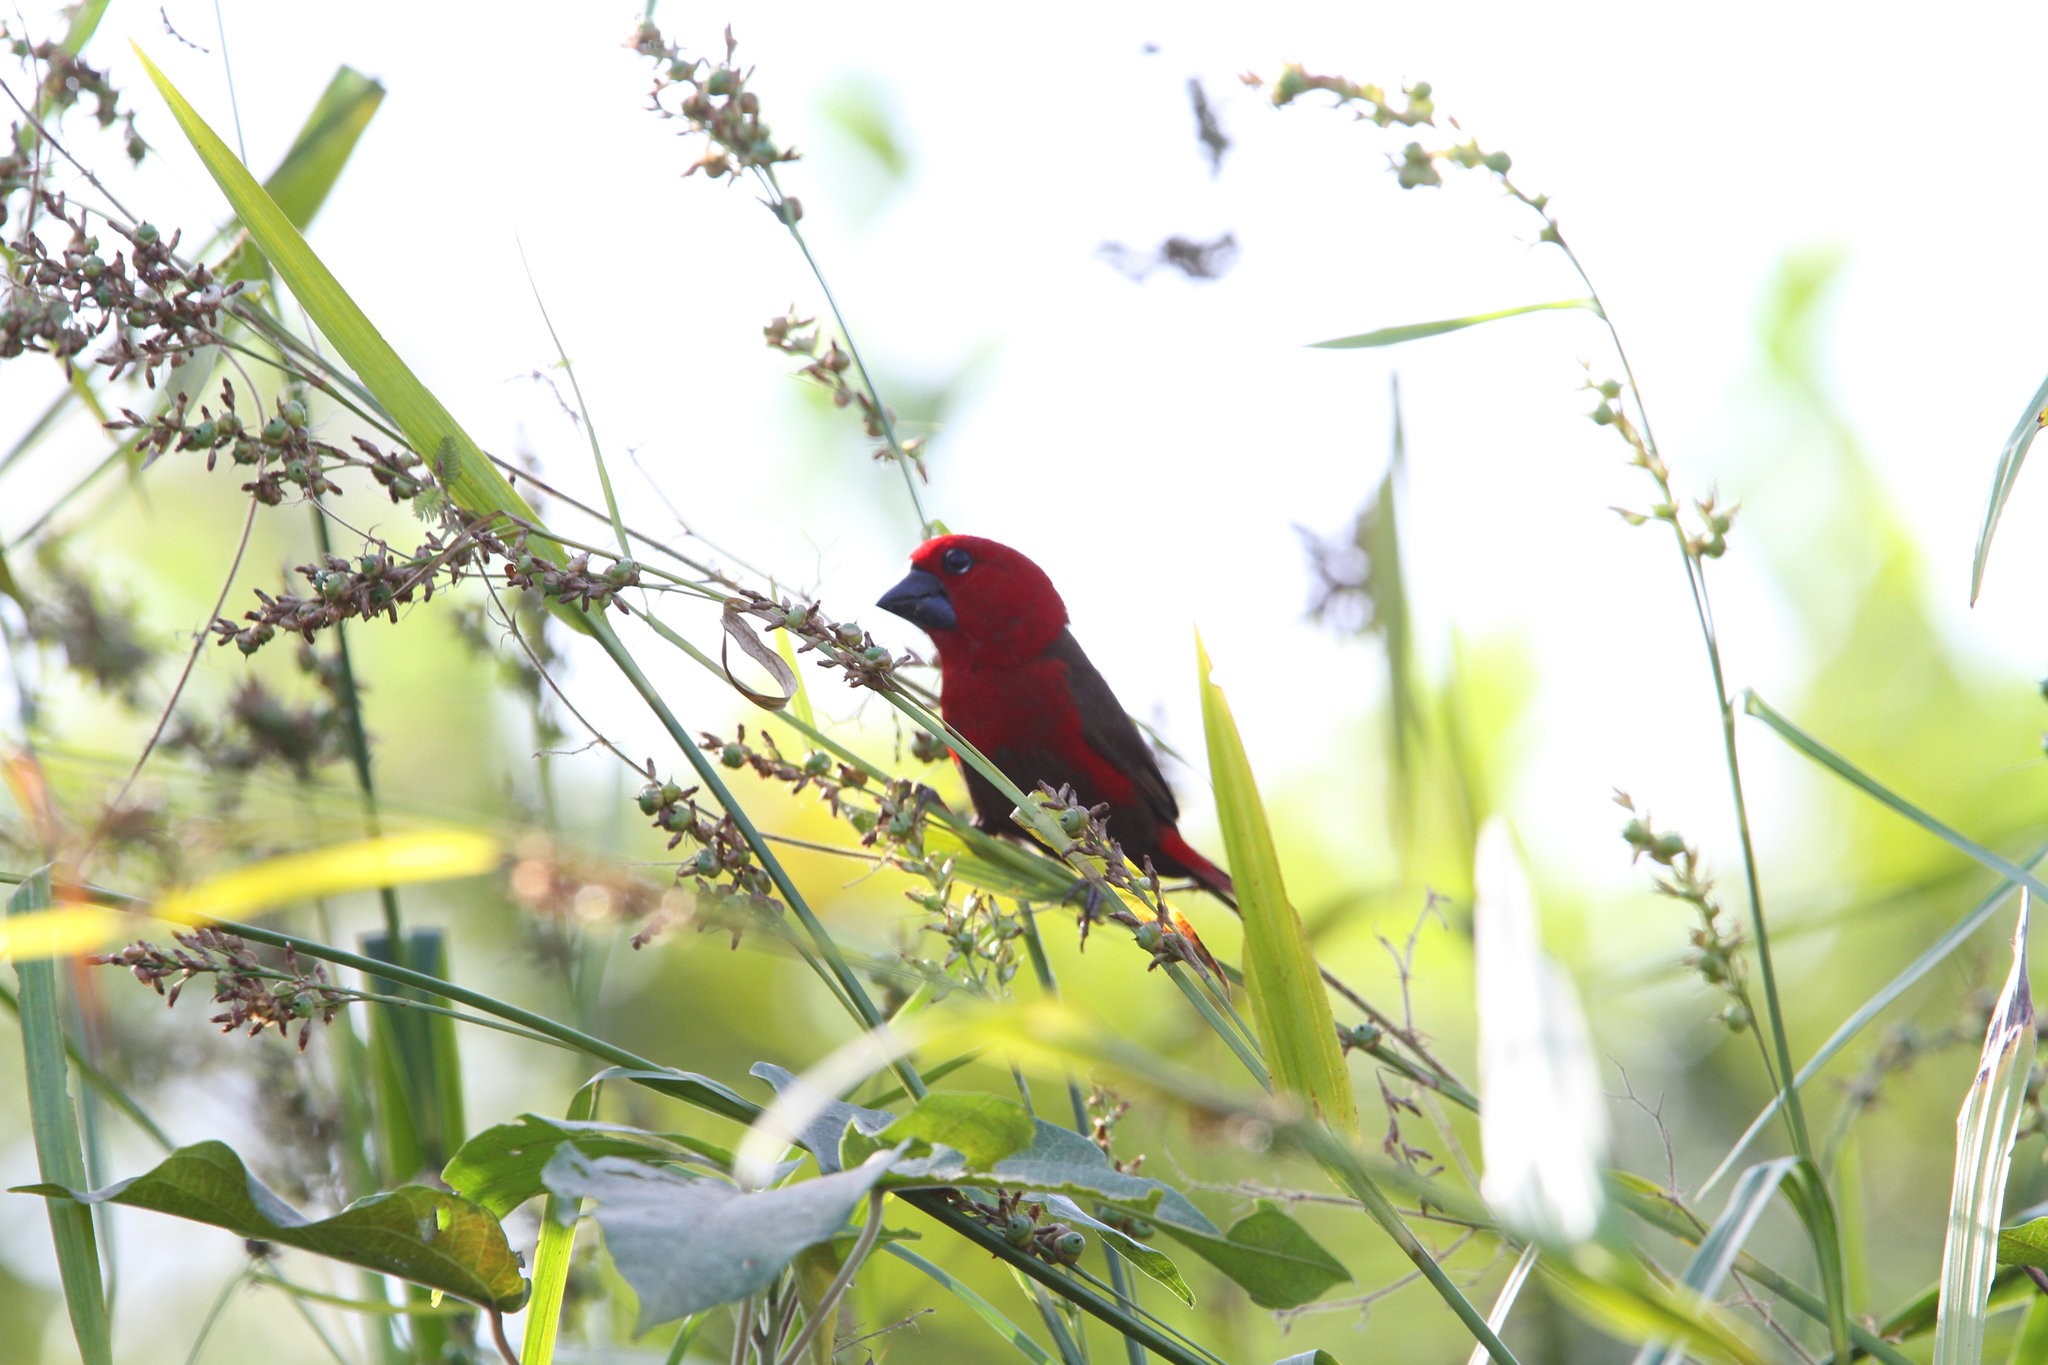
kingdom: Animalia
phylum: Chordata
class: Aves
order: Passeriformes
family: Estrildidae
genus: Pyrenestes
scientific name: Pyrenestes sanguineus
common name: Crimson seedcracker
